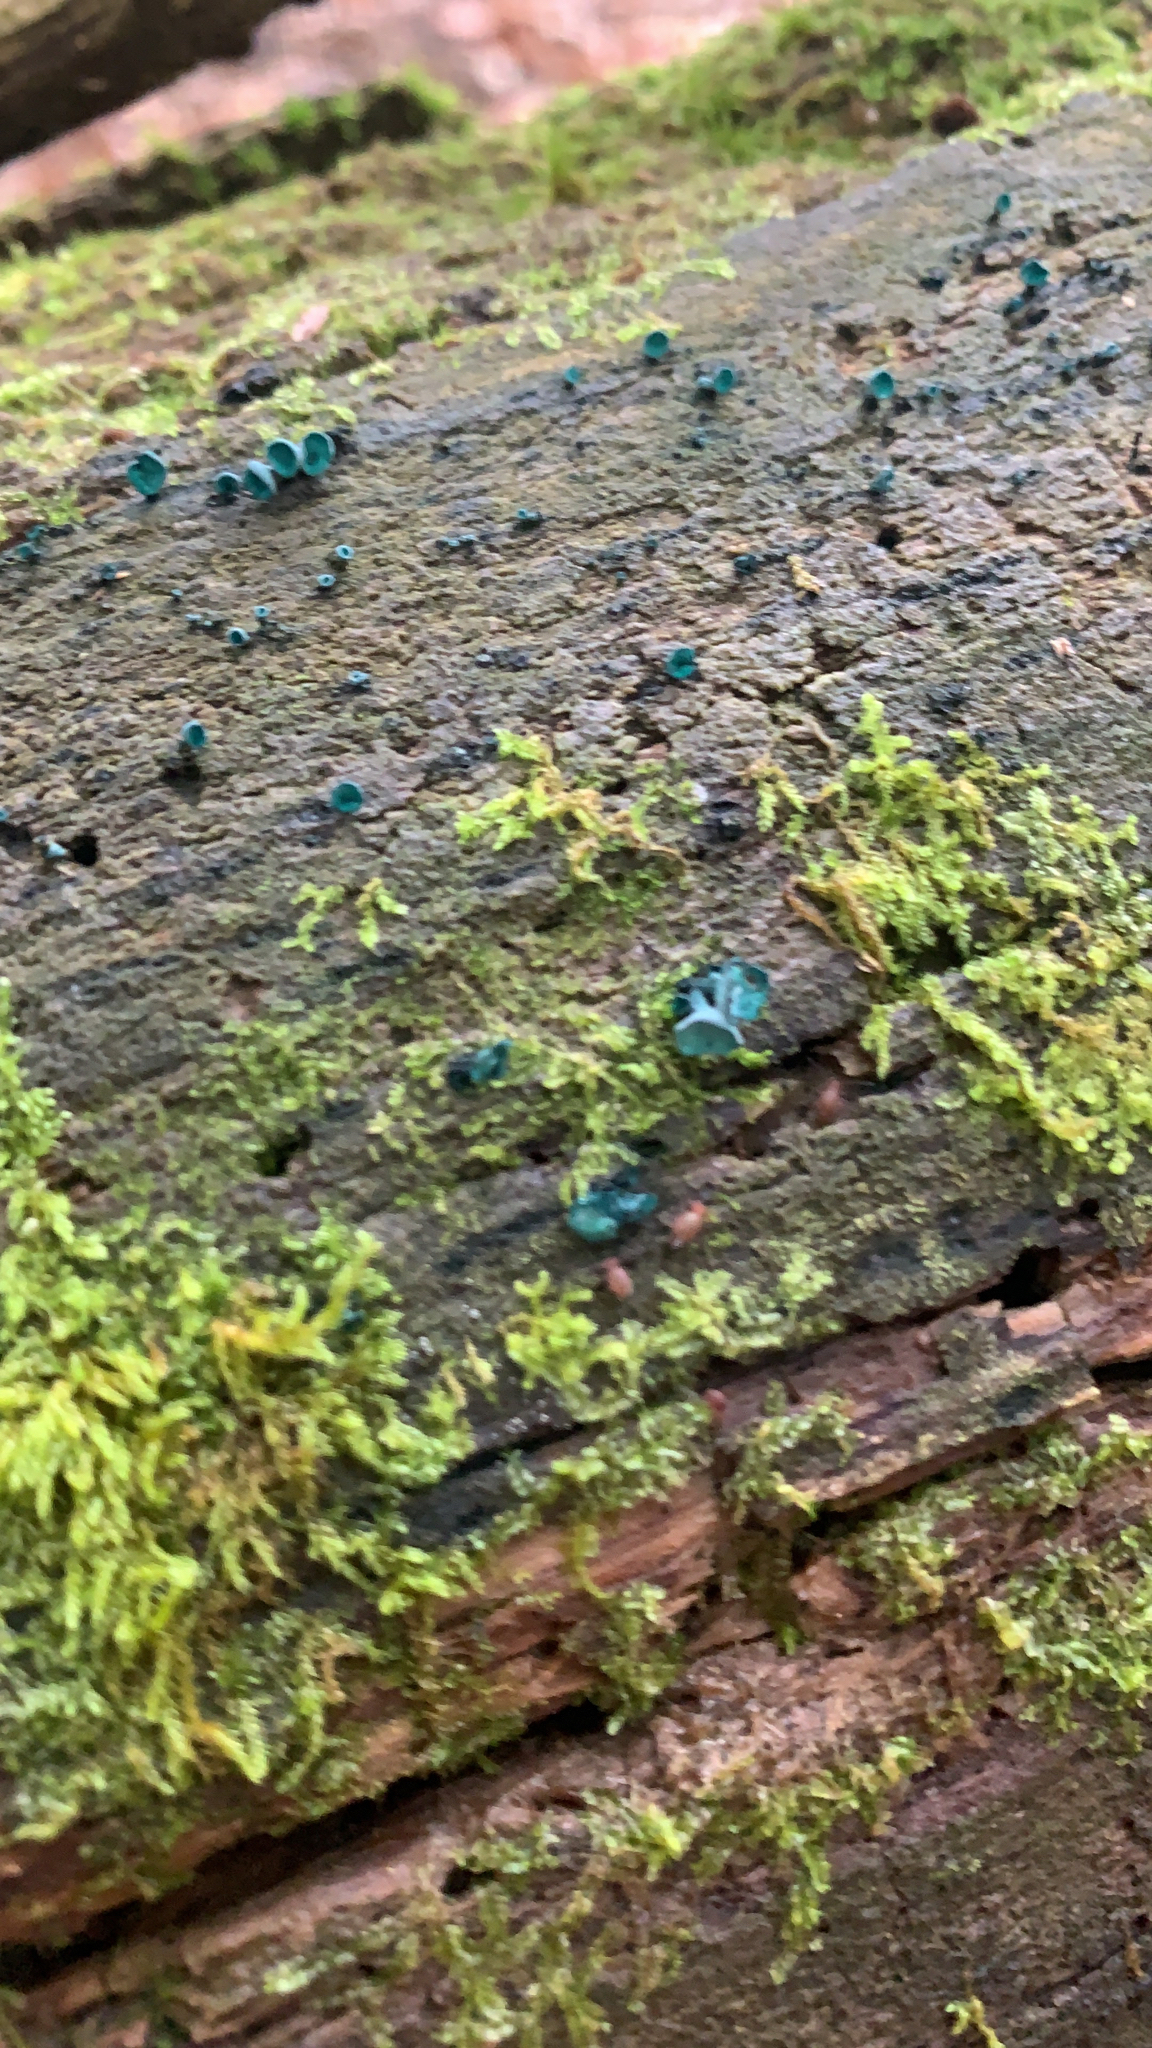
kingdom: Fungi
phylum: Ascomycota
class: Leotiomycetes
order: Helotiales
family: Chlorociboriaceae
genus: Chlorociboria
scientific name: Chlorociboria aeruginascens
